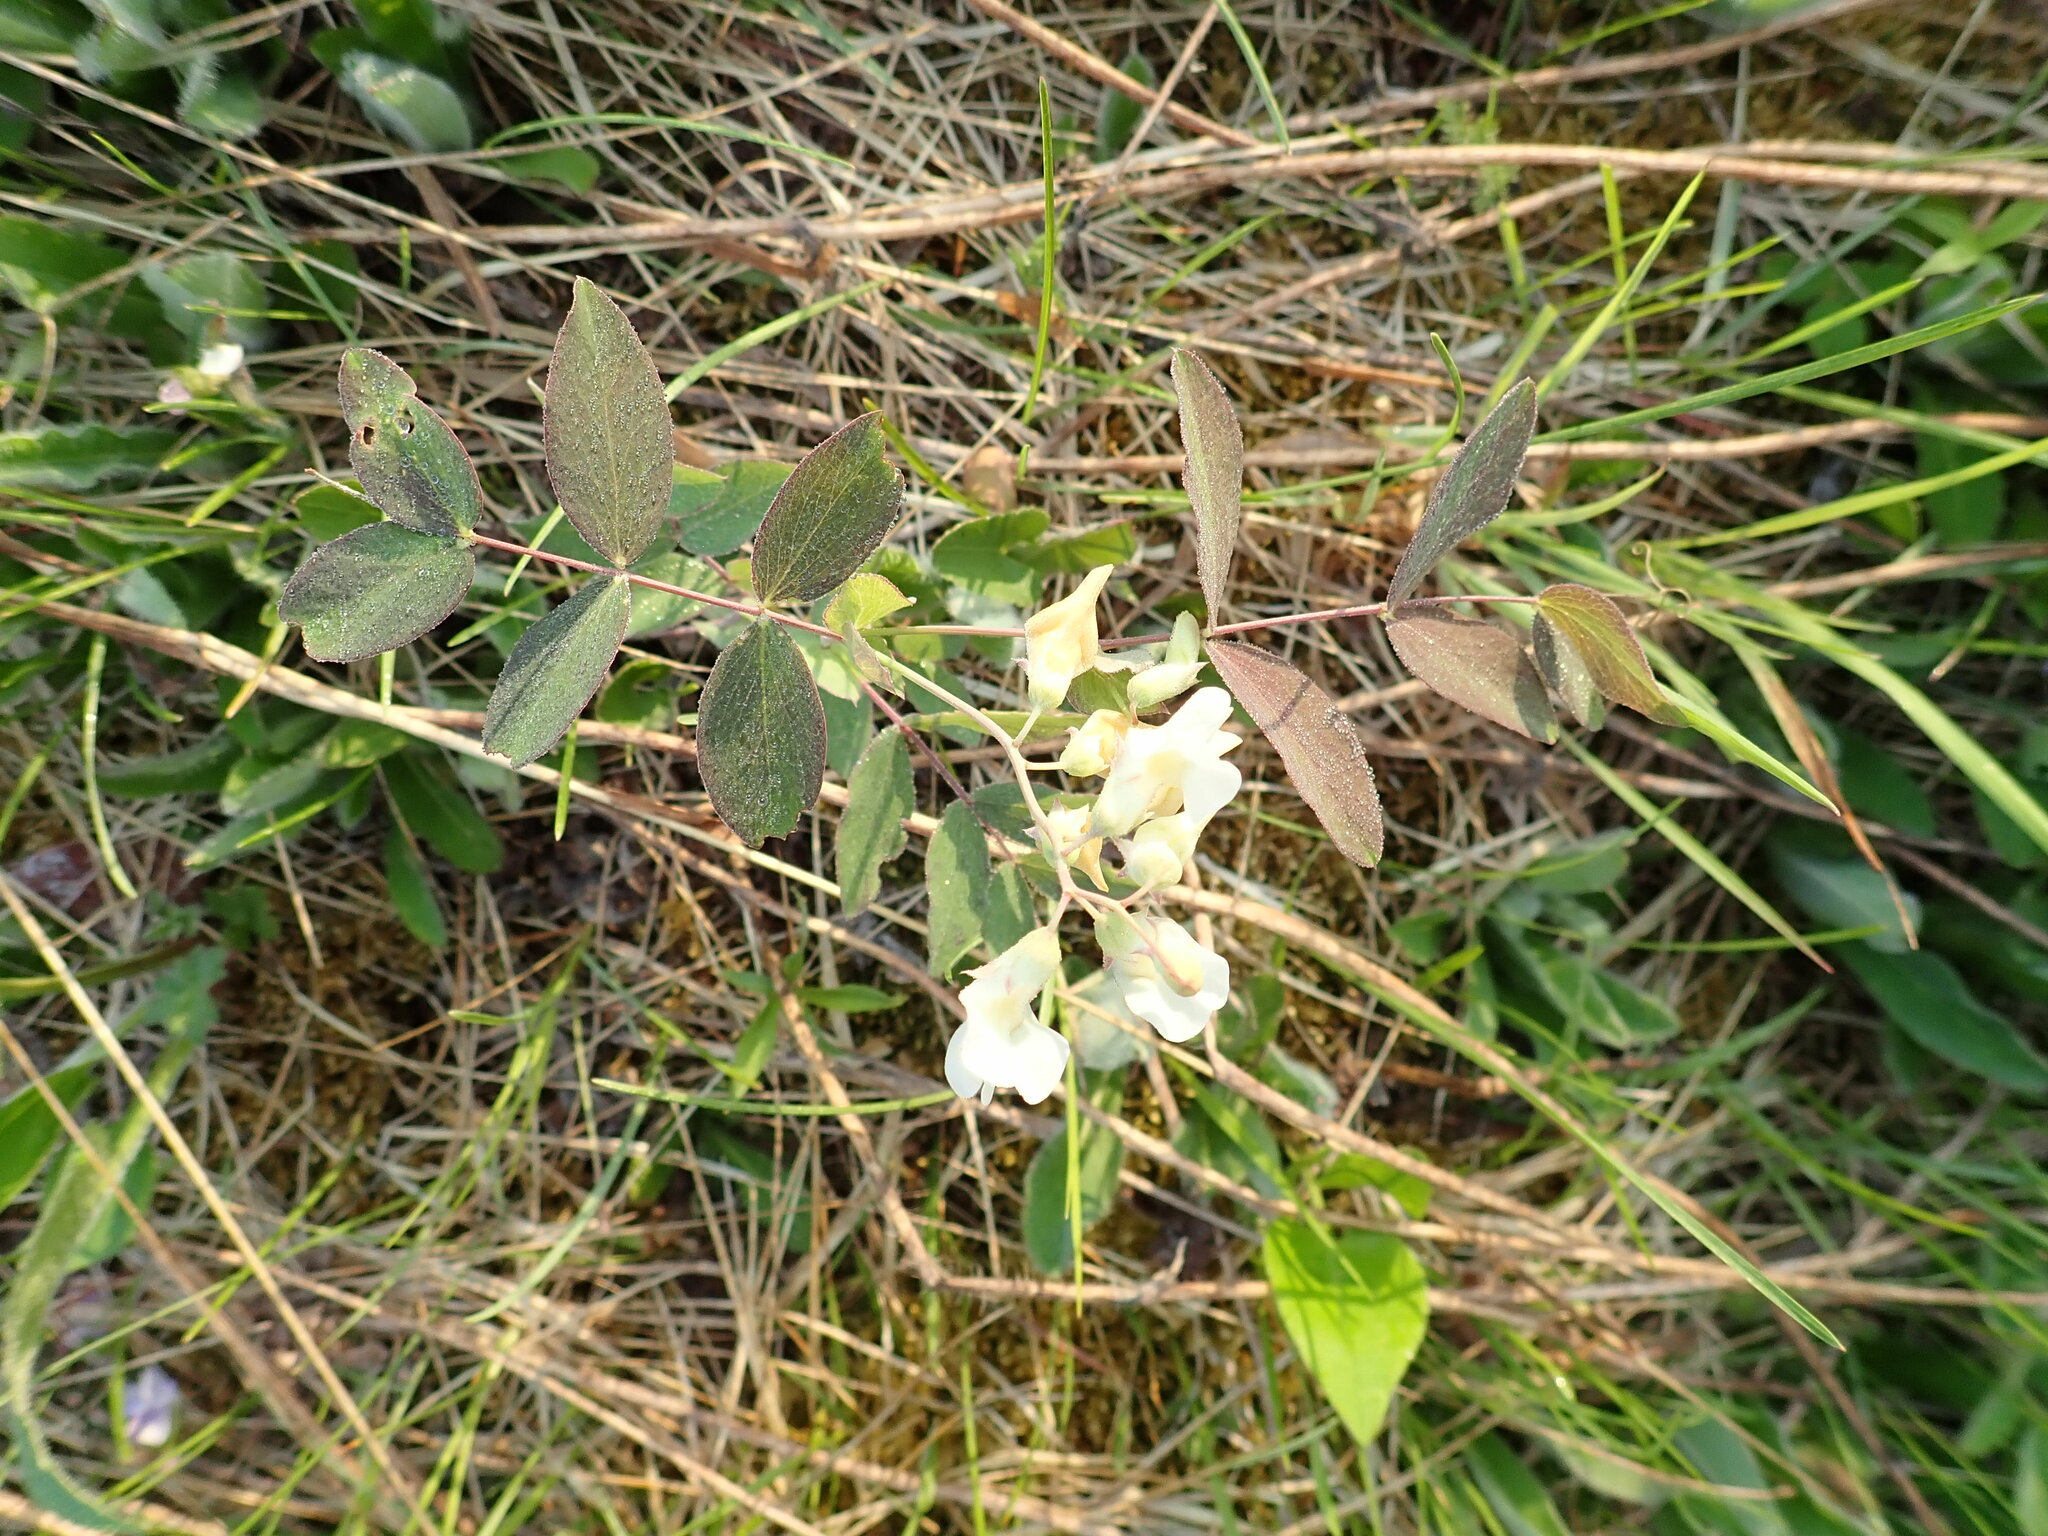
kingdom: Plantae
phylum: Tracheophyta
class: Magnoliopsida
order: Fabales
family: Fabaceae
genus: Lathyrus
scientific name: Lathyrus ochroleucus
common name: Pale vetchling
